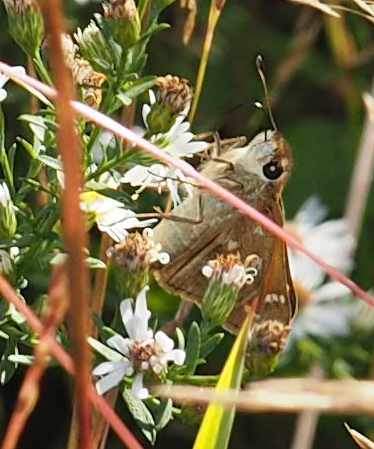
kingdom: Animalia
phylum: Arthropoda
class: Insecta
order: Lepidoptera
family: Hesperiidae
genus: Atalopedes
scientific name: Atalopedes
